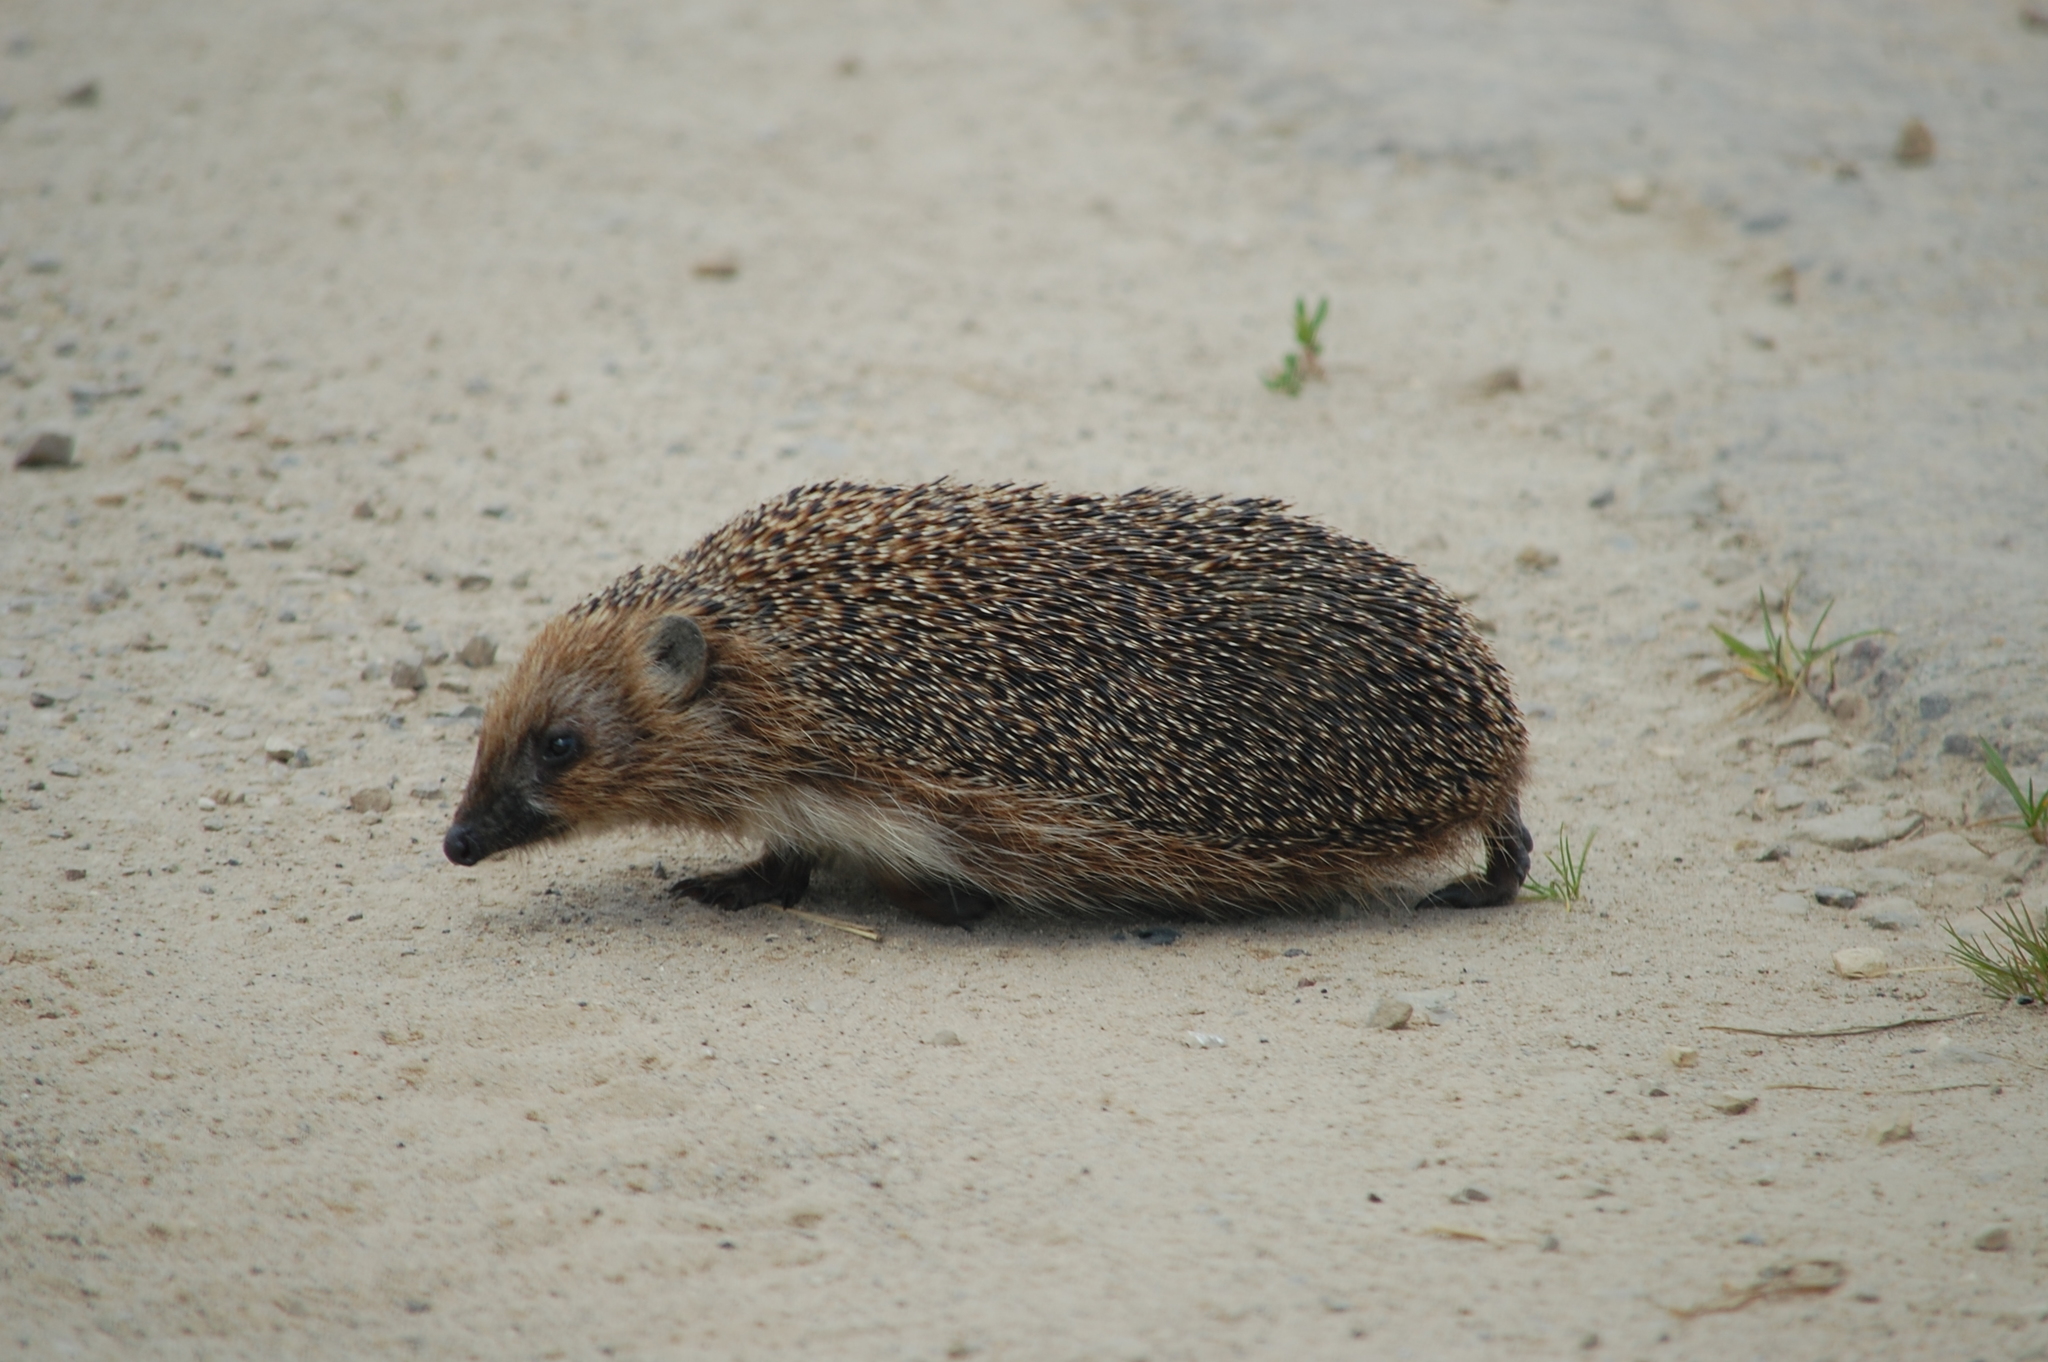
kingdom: Animalia
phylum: Chordata
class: Mammalia
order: Erinaceomorpha
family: Erinaceidae
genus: Erinaceus
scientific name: Erinaceus roumanicus
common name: Northern white-breasted hedgehog
